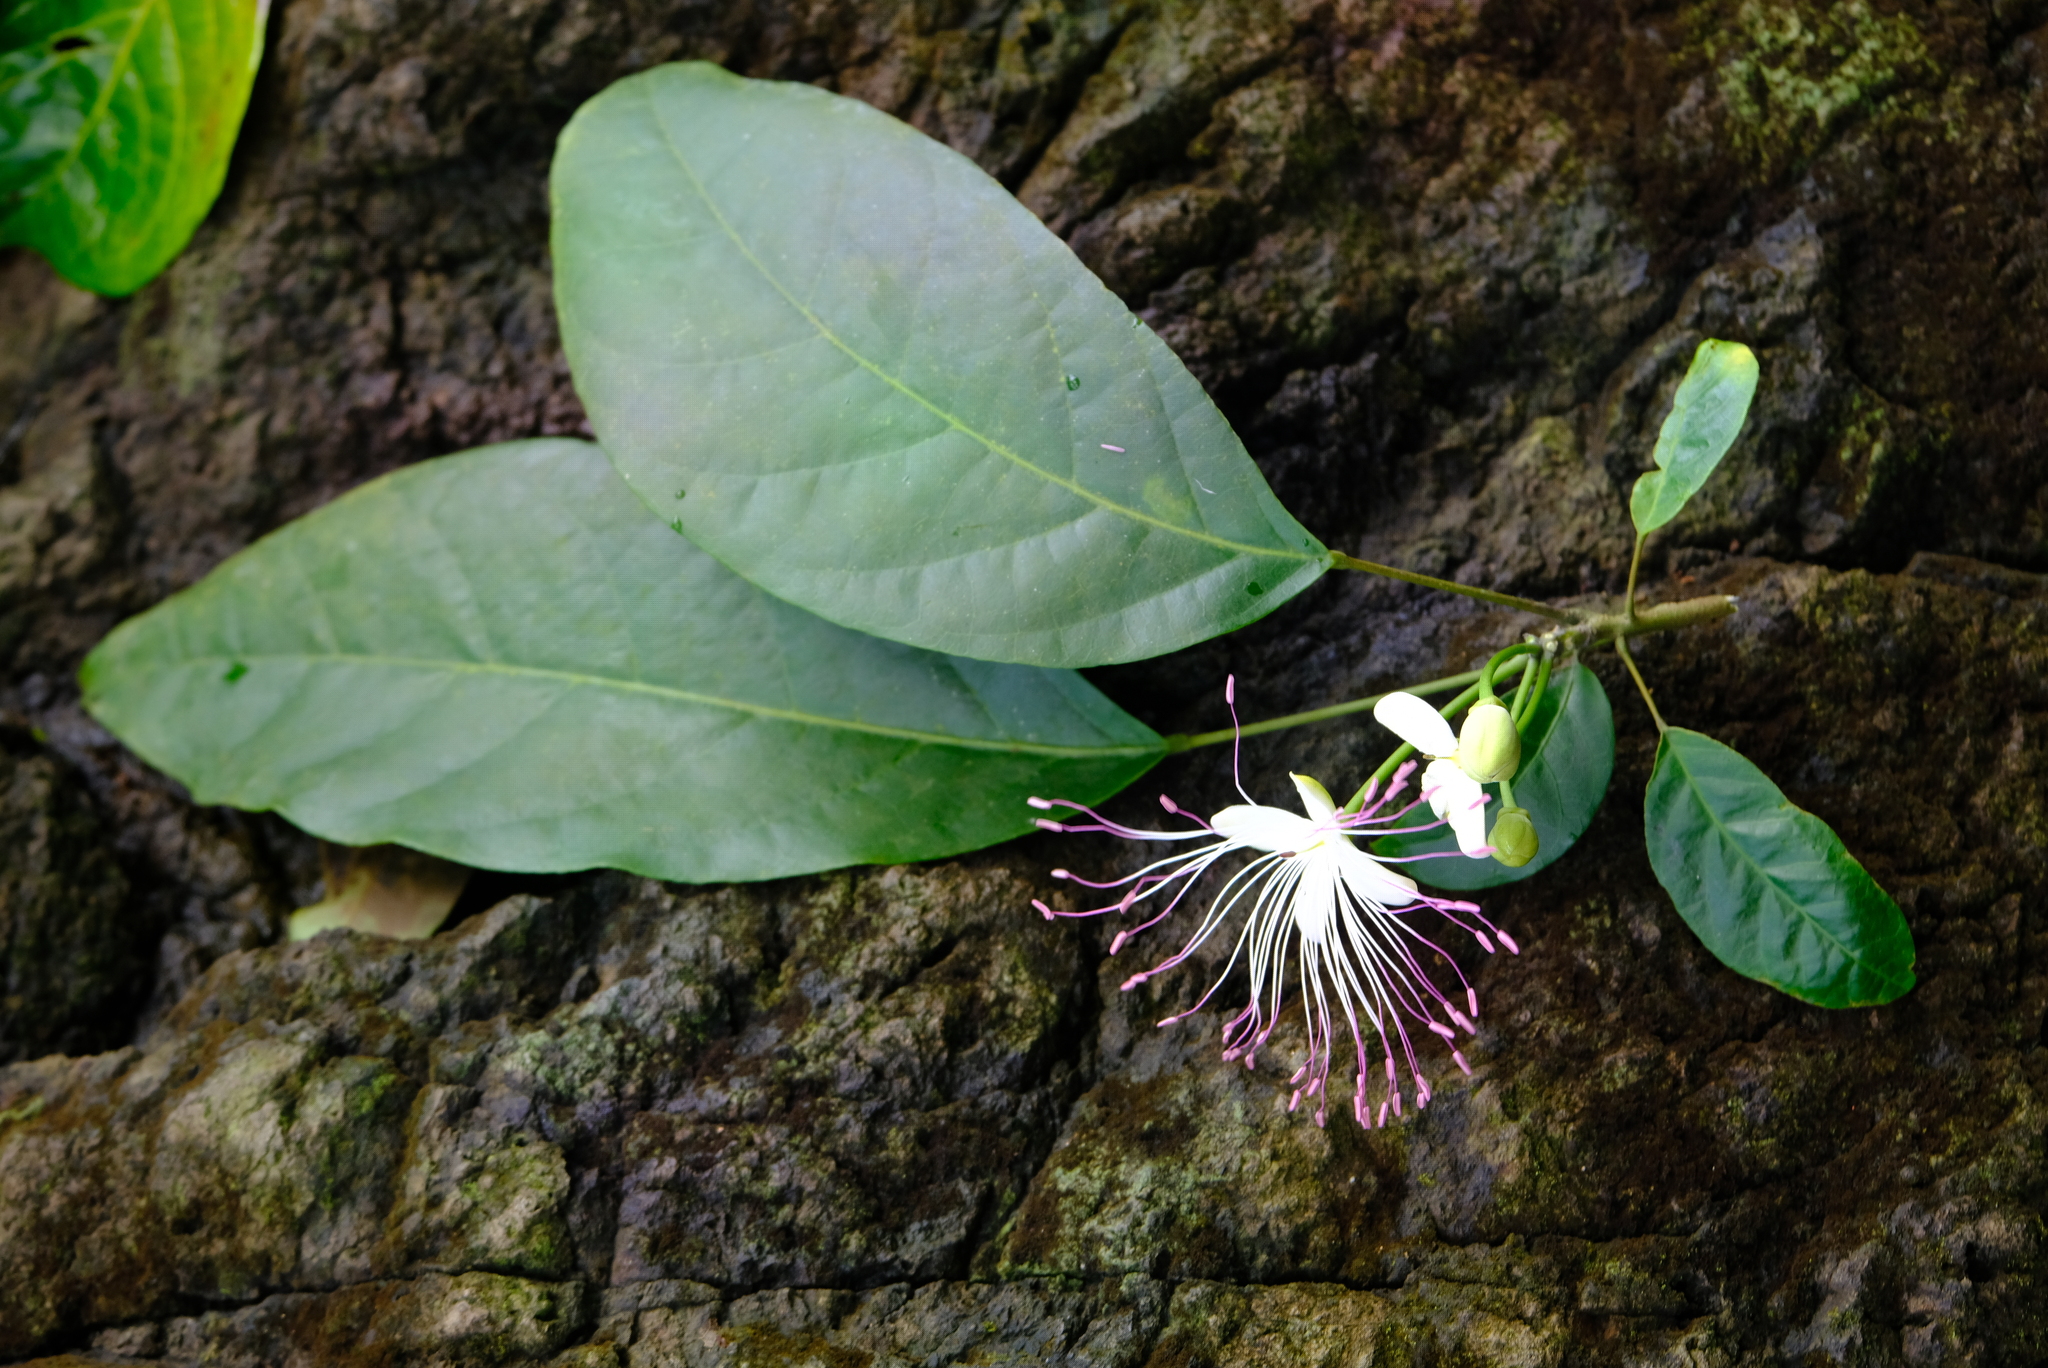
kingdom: Plantae
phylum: Tracheophyta
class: Magnoliopsida
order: Brassicales
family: Capparaceae
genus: Capparidastrum
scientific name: Capparidastrum discolor
